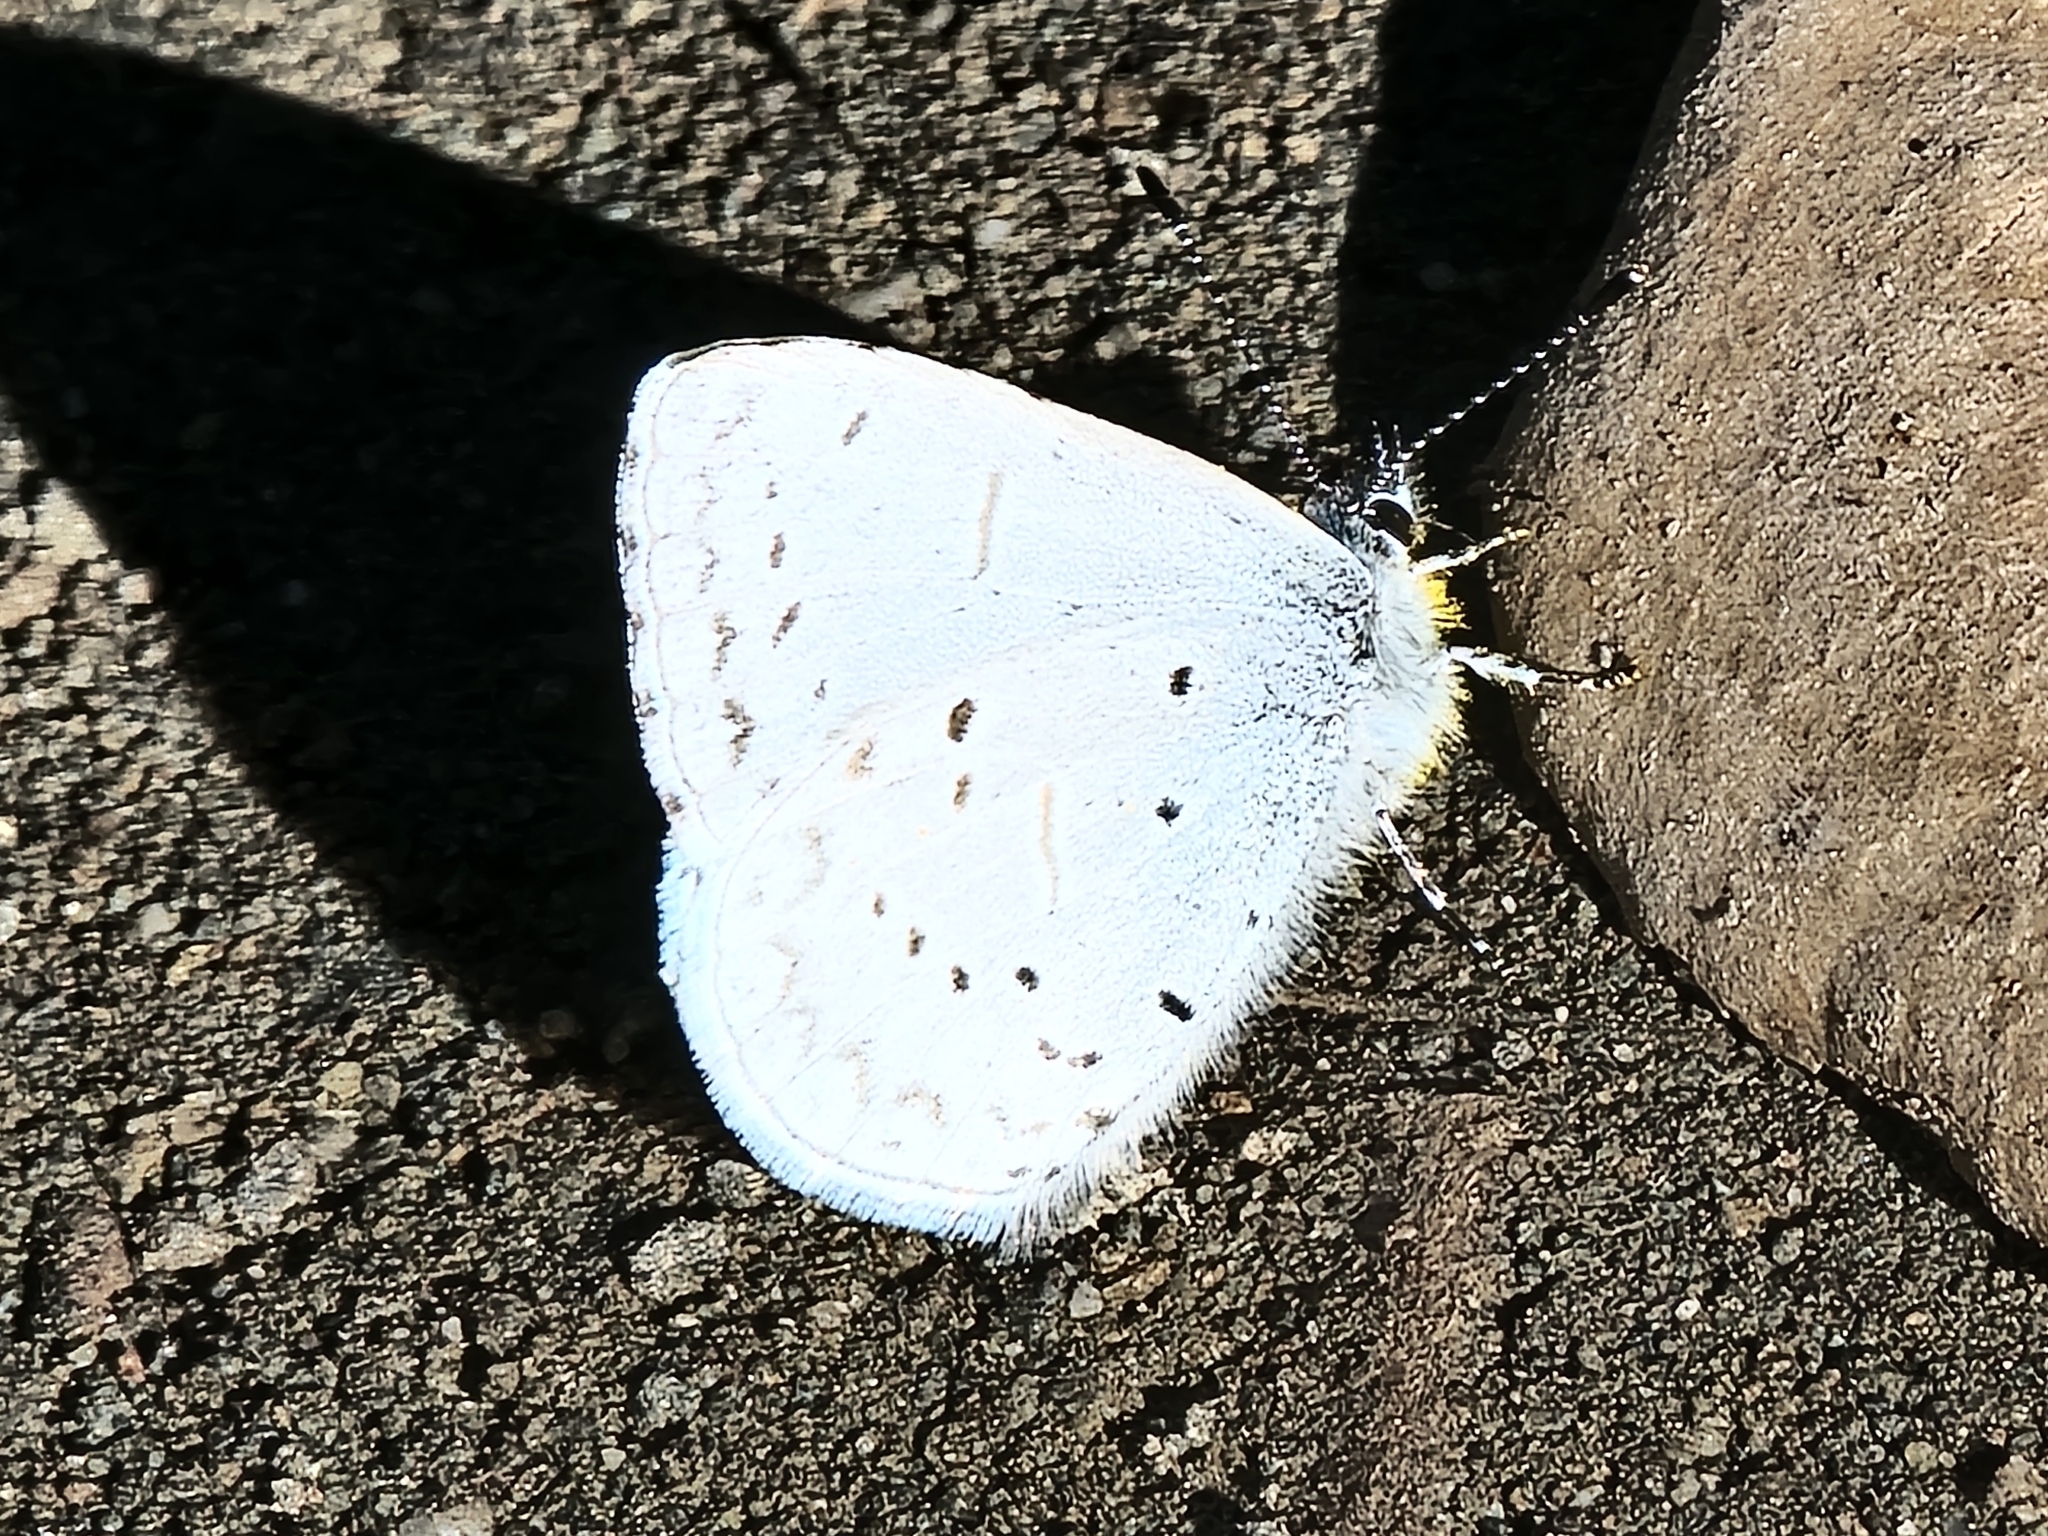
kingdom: Animalia
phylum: Arthropoda
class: Insecta
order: Lepidoptera
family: Lycaenidae
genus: Celastrina
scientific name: Celastrina ladon
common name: Spring azure
